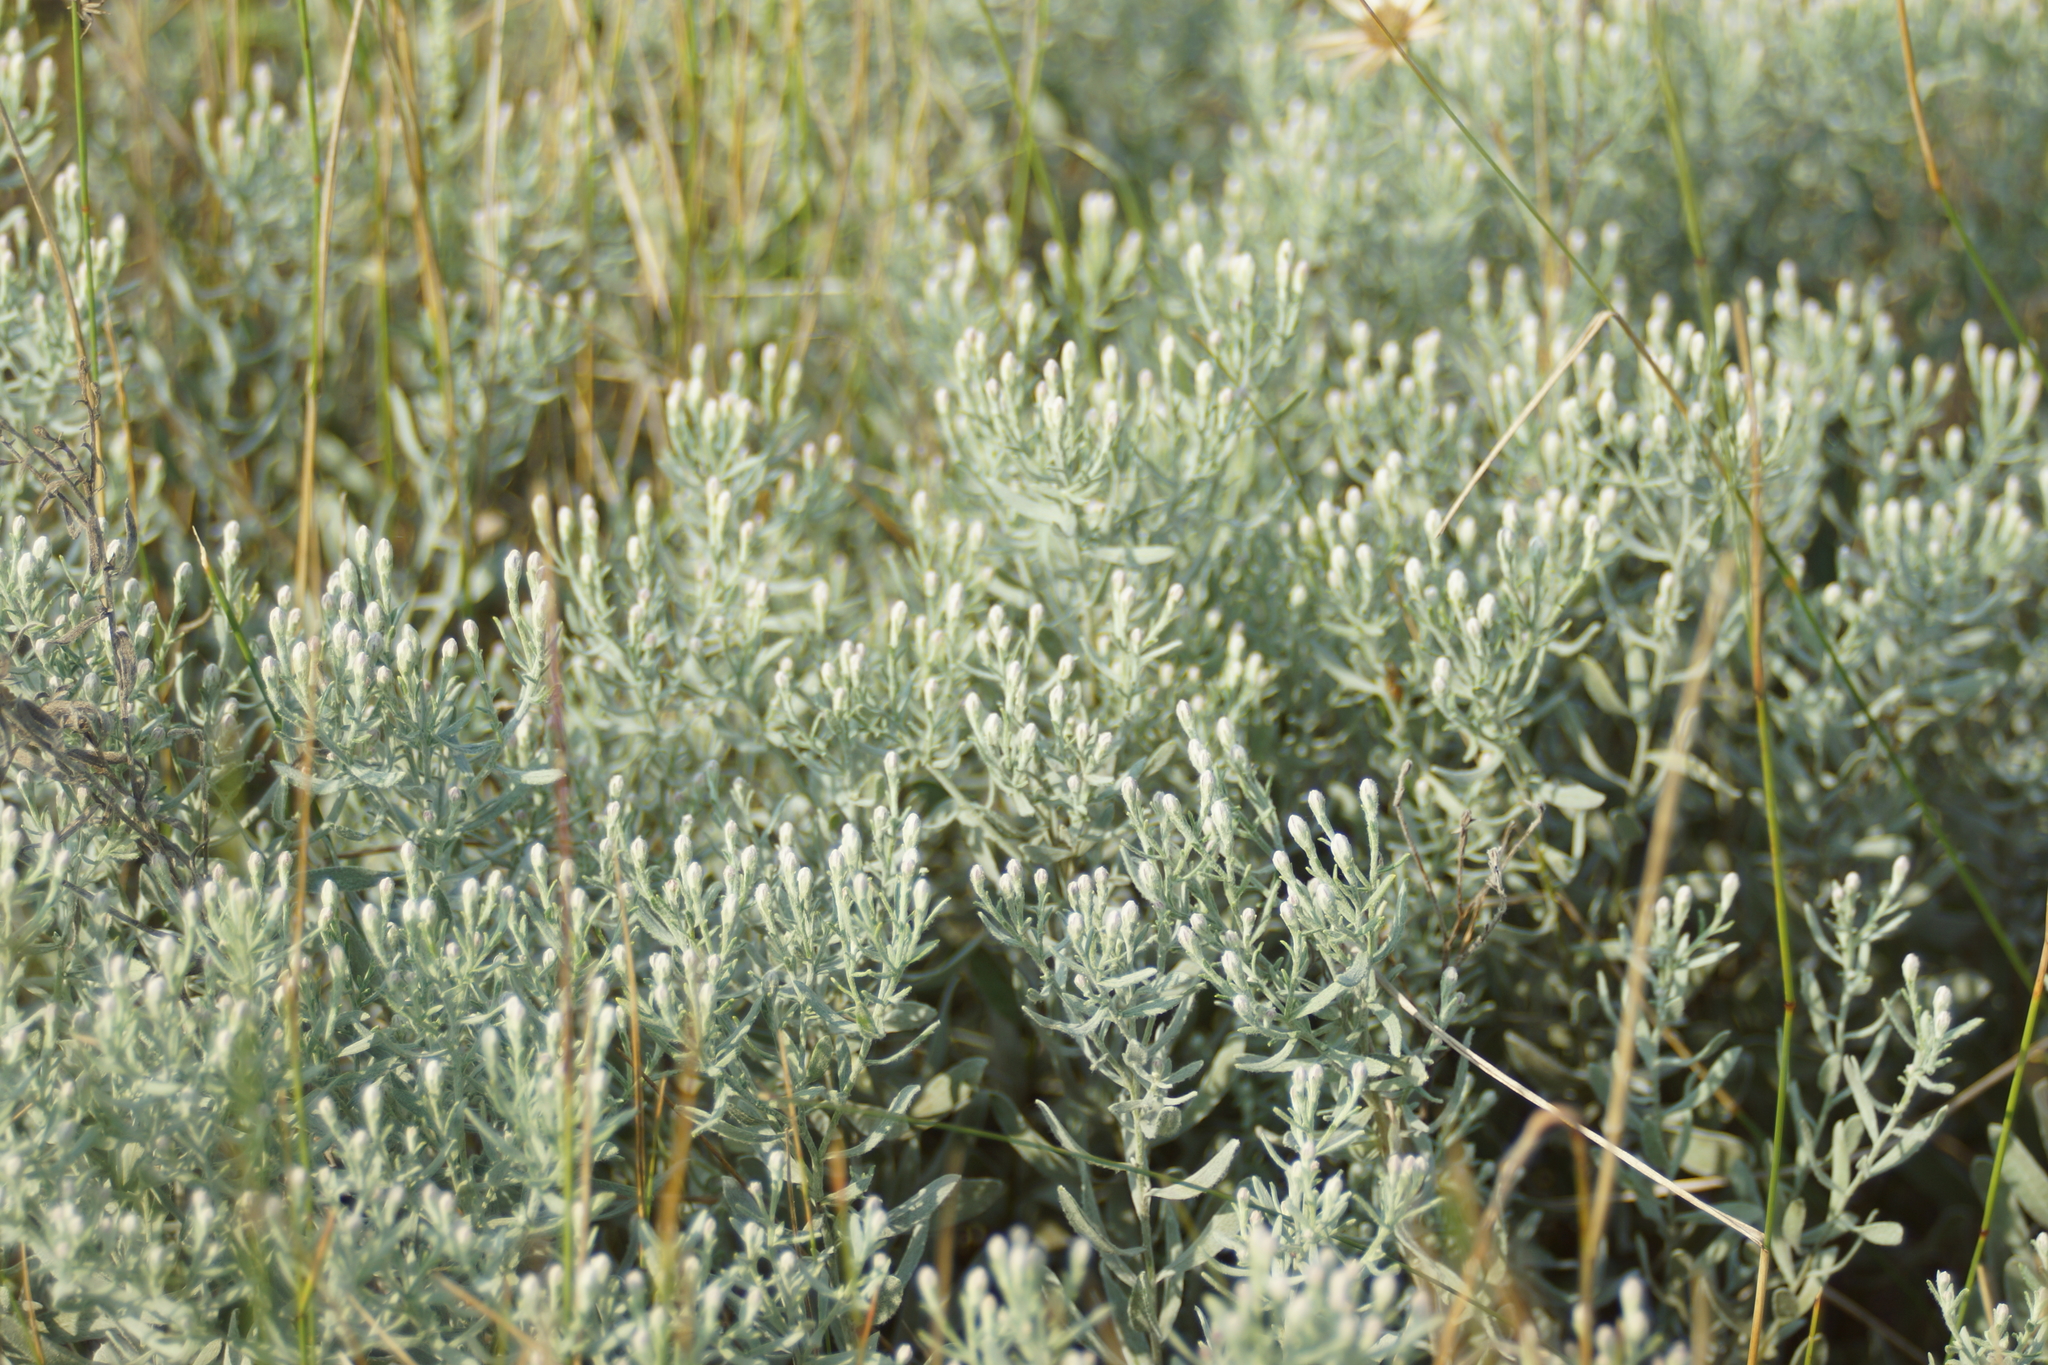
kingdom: Plantae
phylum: Tracheophyta
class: Magnoliopsida
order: Asterales
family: Asteraceae
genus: Galatella
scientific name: Galatella villosa
